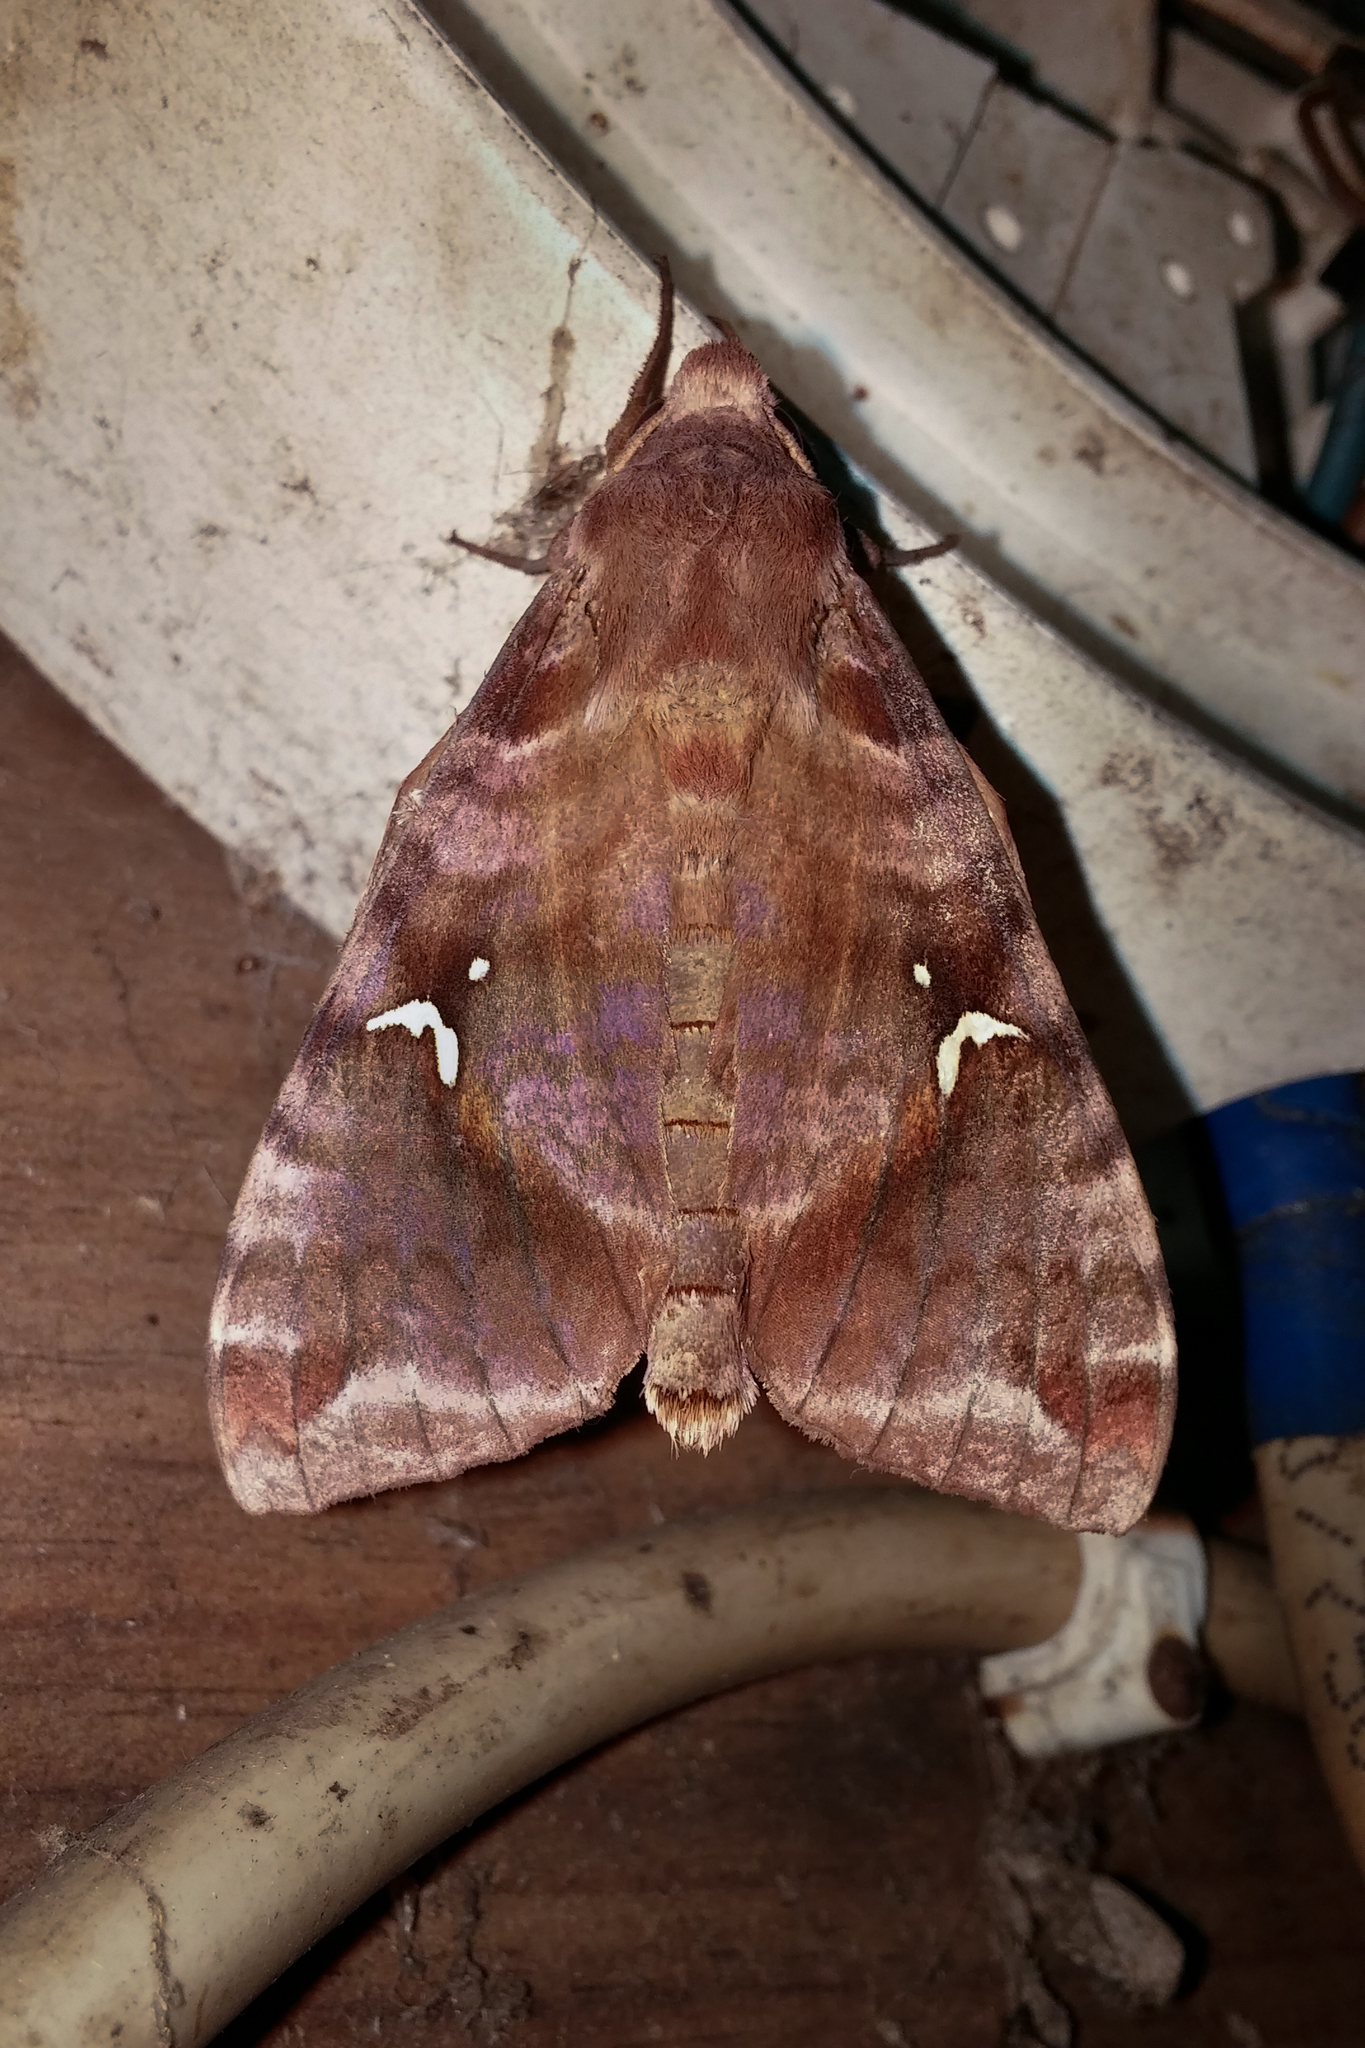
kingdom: Animalia
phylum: Arthropoda
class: Insecta
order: Lepidoptera
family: Sphingidae
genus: Maassenia
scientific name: Maassenia heydeni
